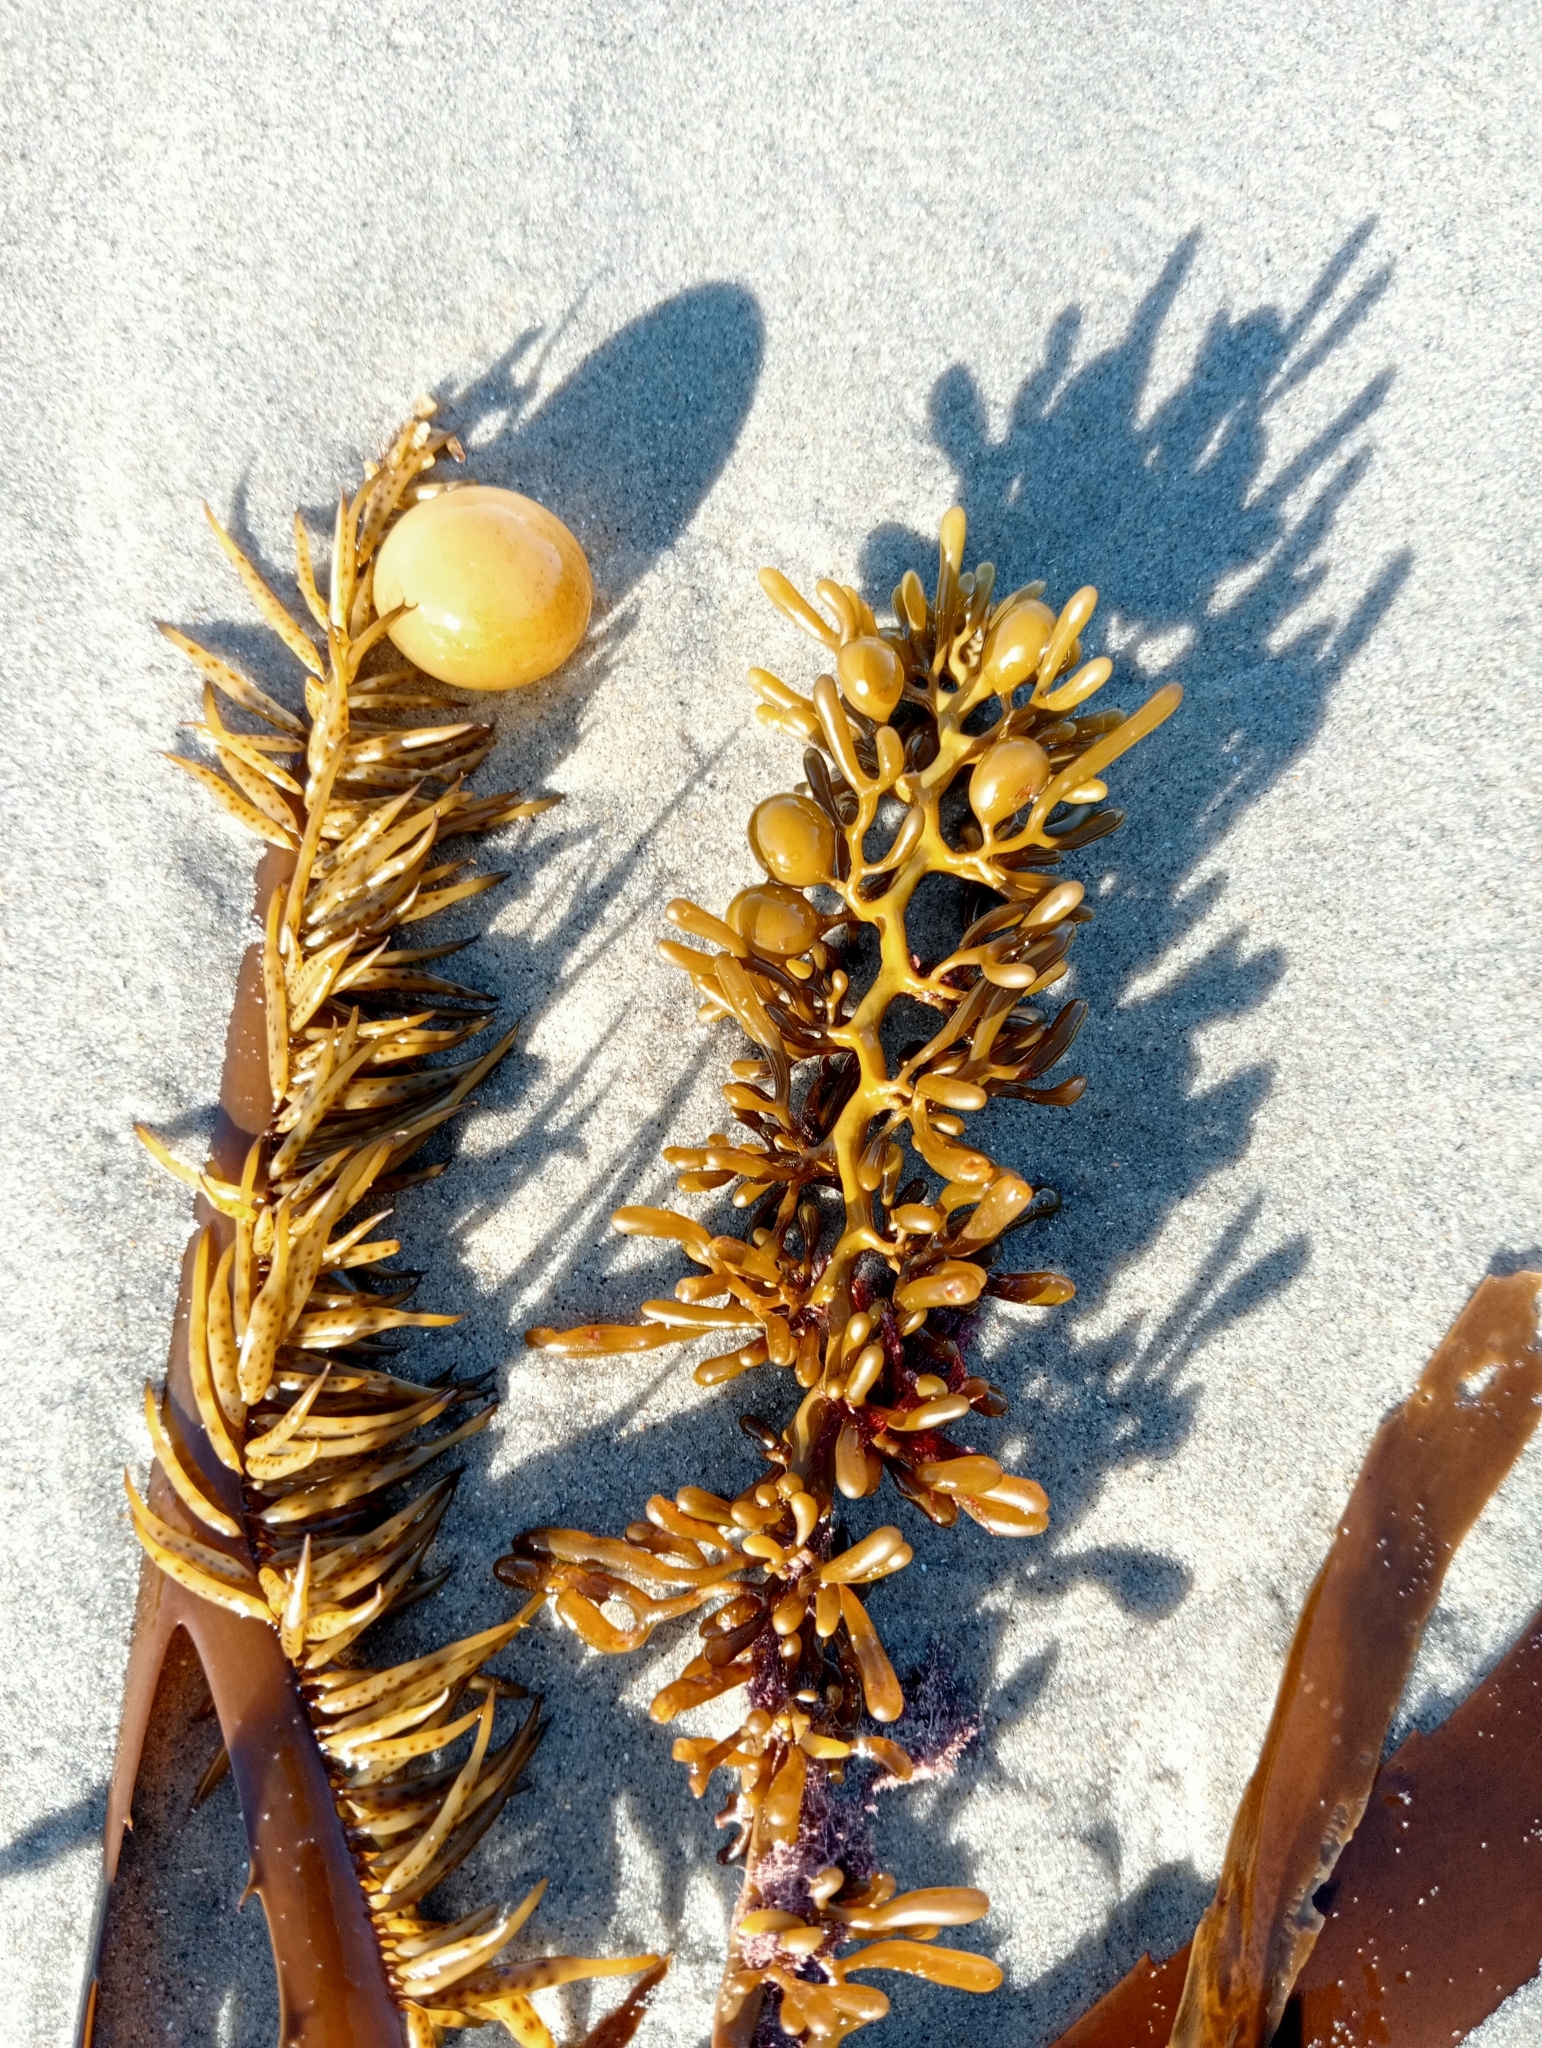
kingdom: Chromista
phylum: Ochrophyta
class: Phaeophyceae
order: Fucales
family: Sargassaceae
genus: Cystophora
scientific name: Cystophora torulosa
